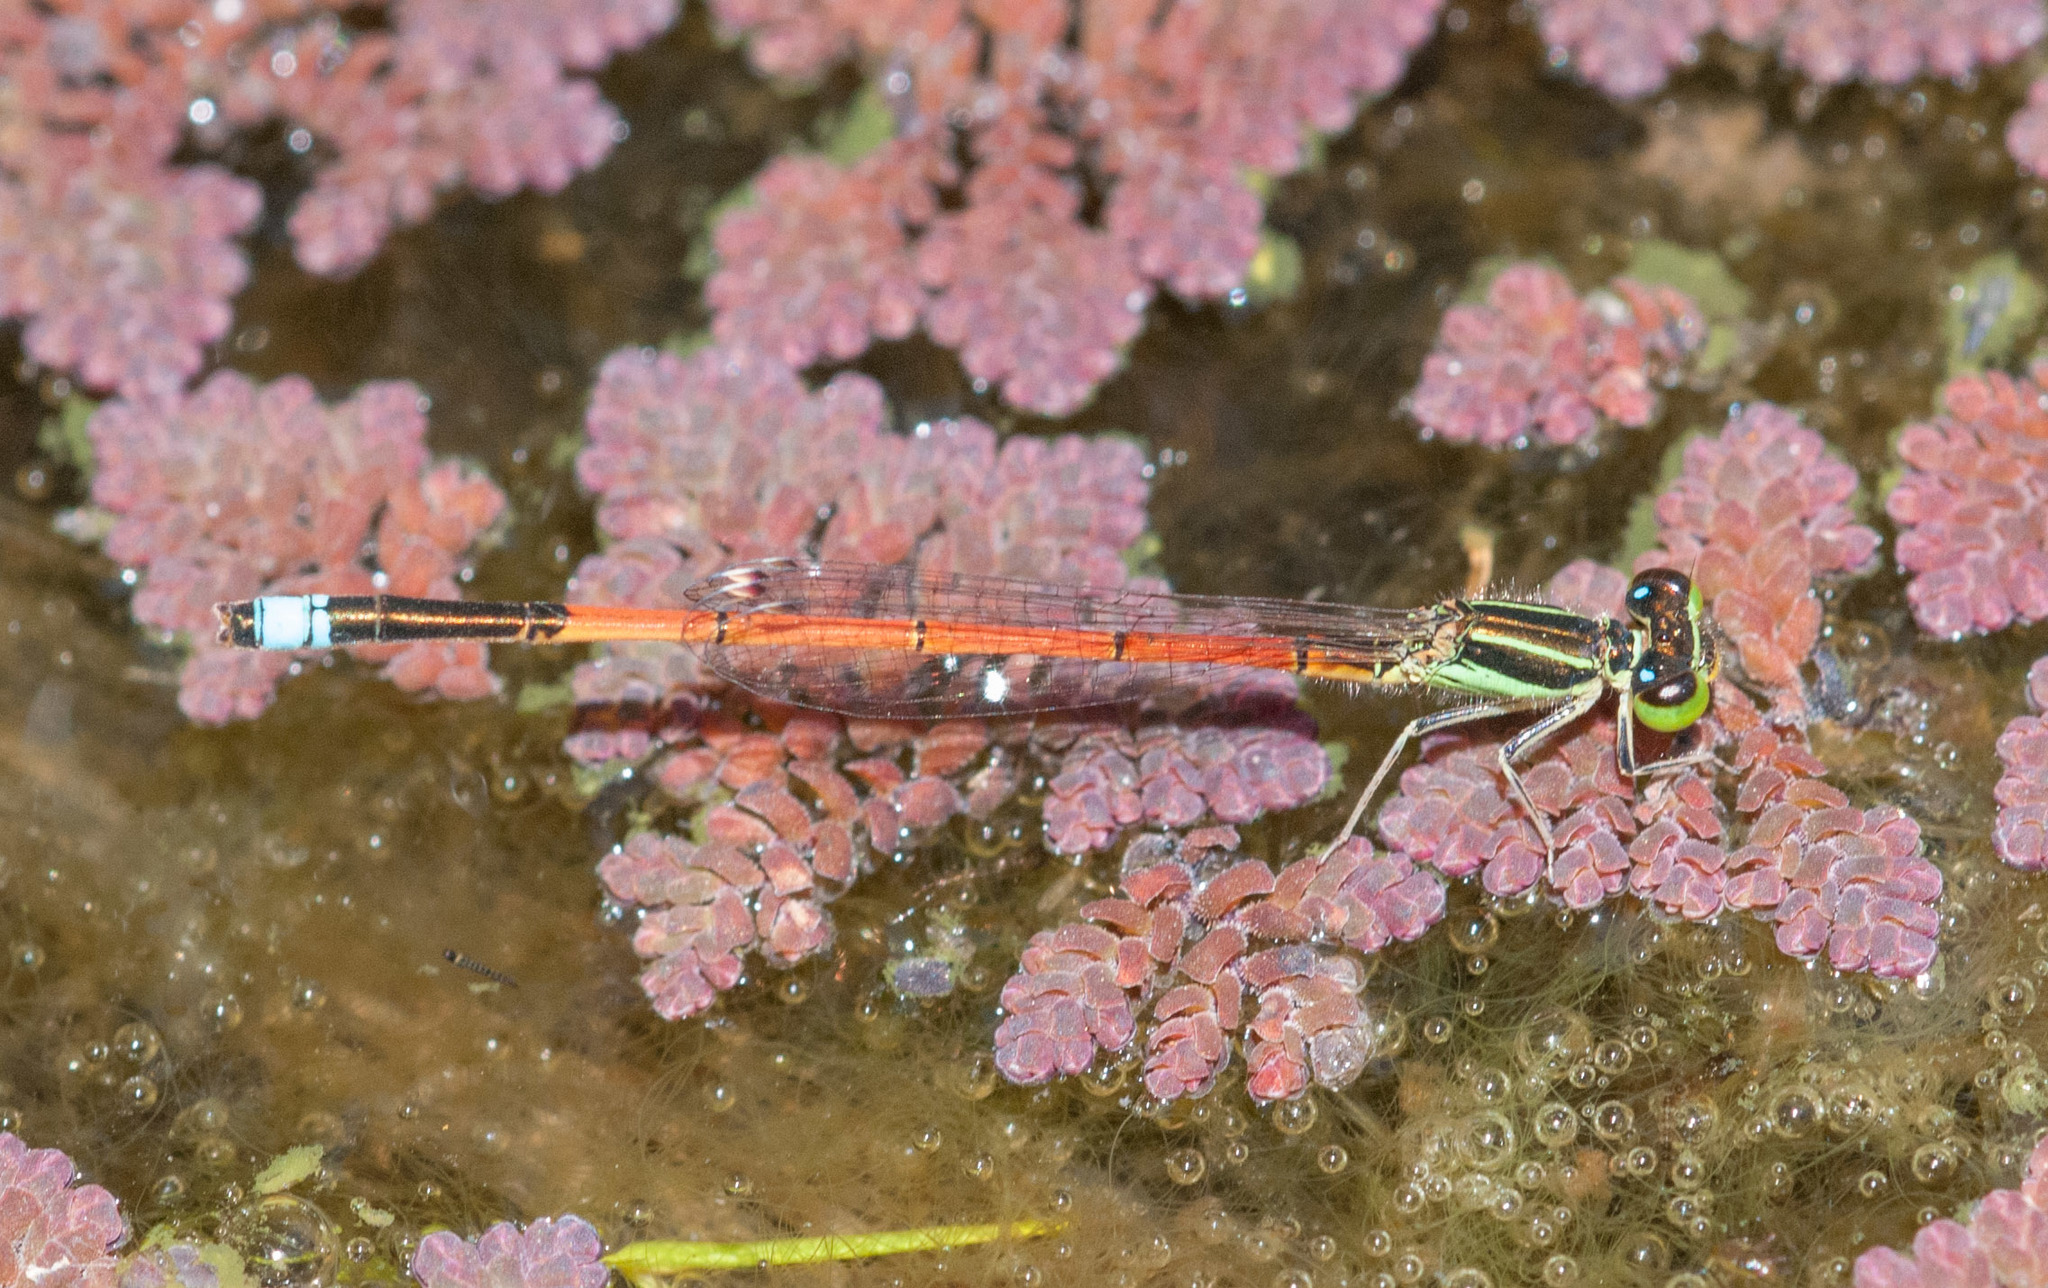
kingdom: Animalia
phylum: Arthropoda
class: Insecta
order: Odonata
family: Coenagrionidae
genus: Ischnura
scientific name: Ischnura aurora
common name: Gossamer damselfly
